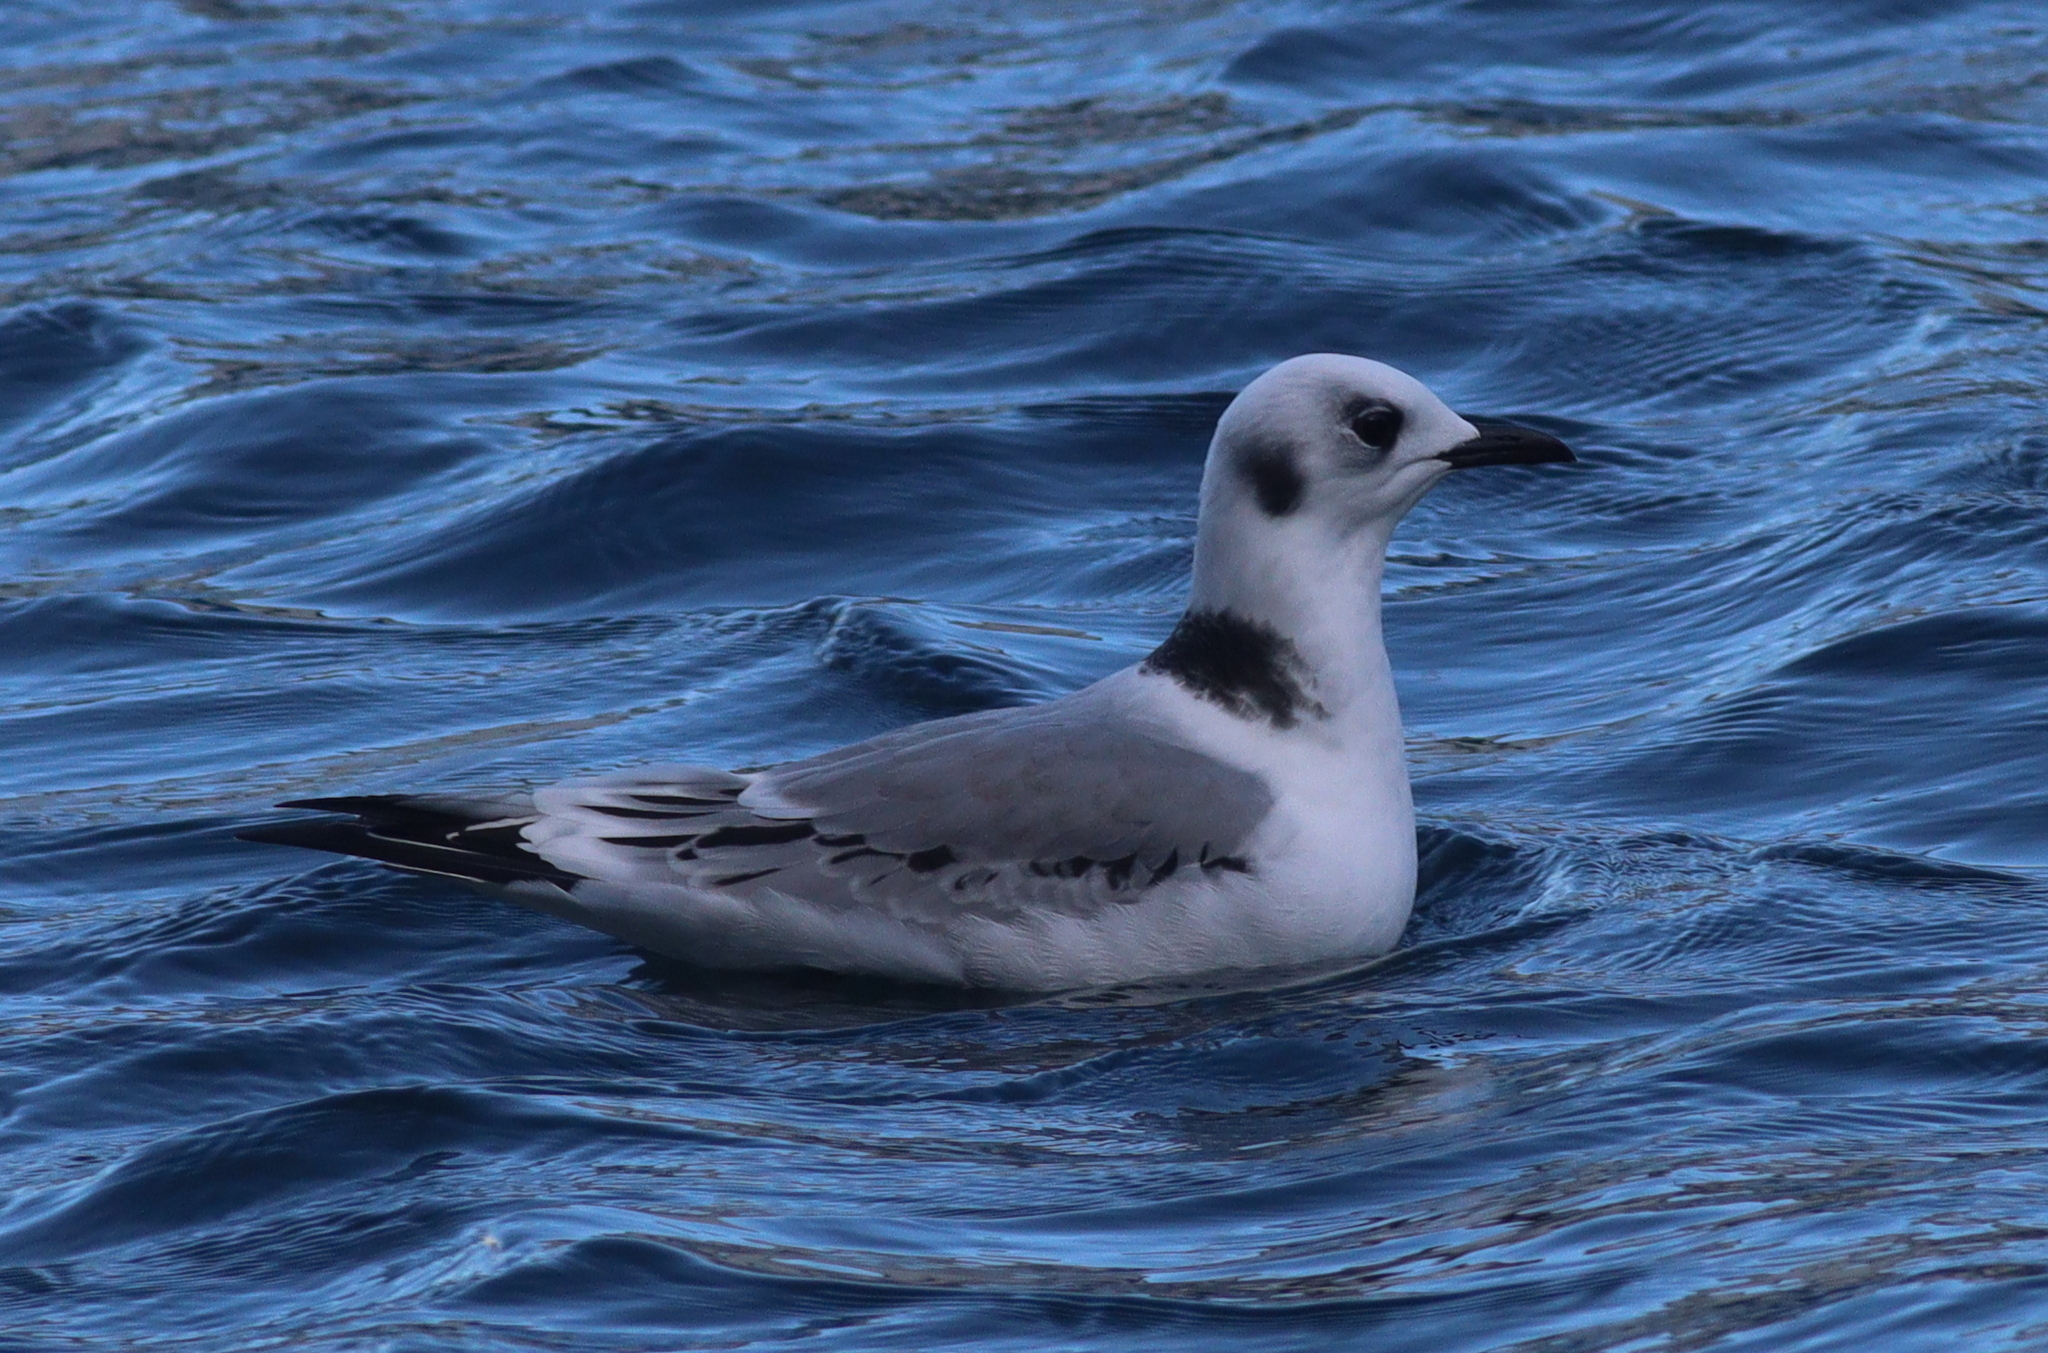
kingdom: Animalia
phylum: Chordata
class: Aves
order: Charadriiformes
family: Laridae
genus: Rissa
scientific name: Rissa tridactyla
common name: Black-legged kittiwake
